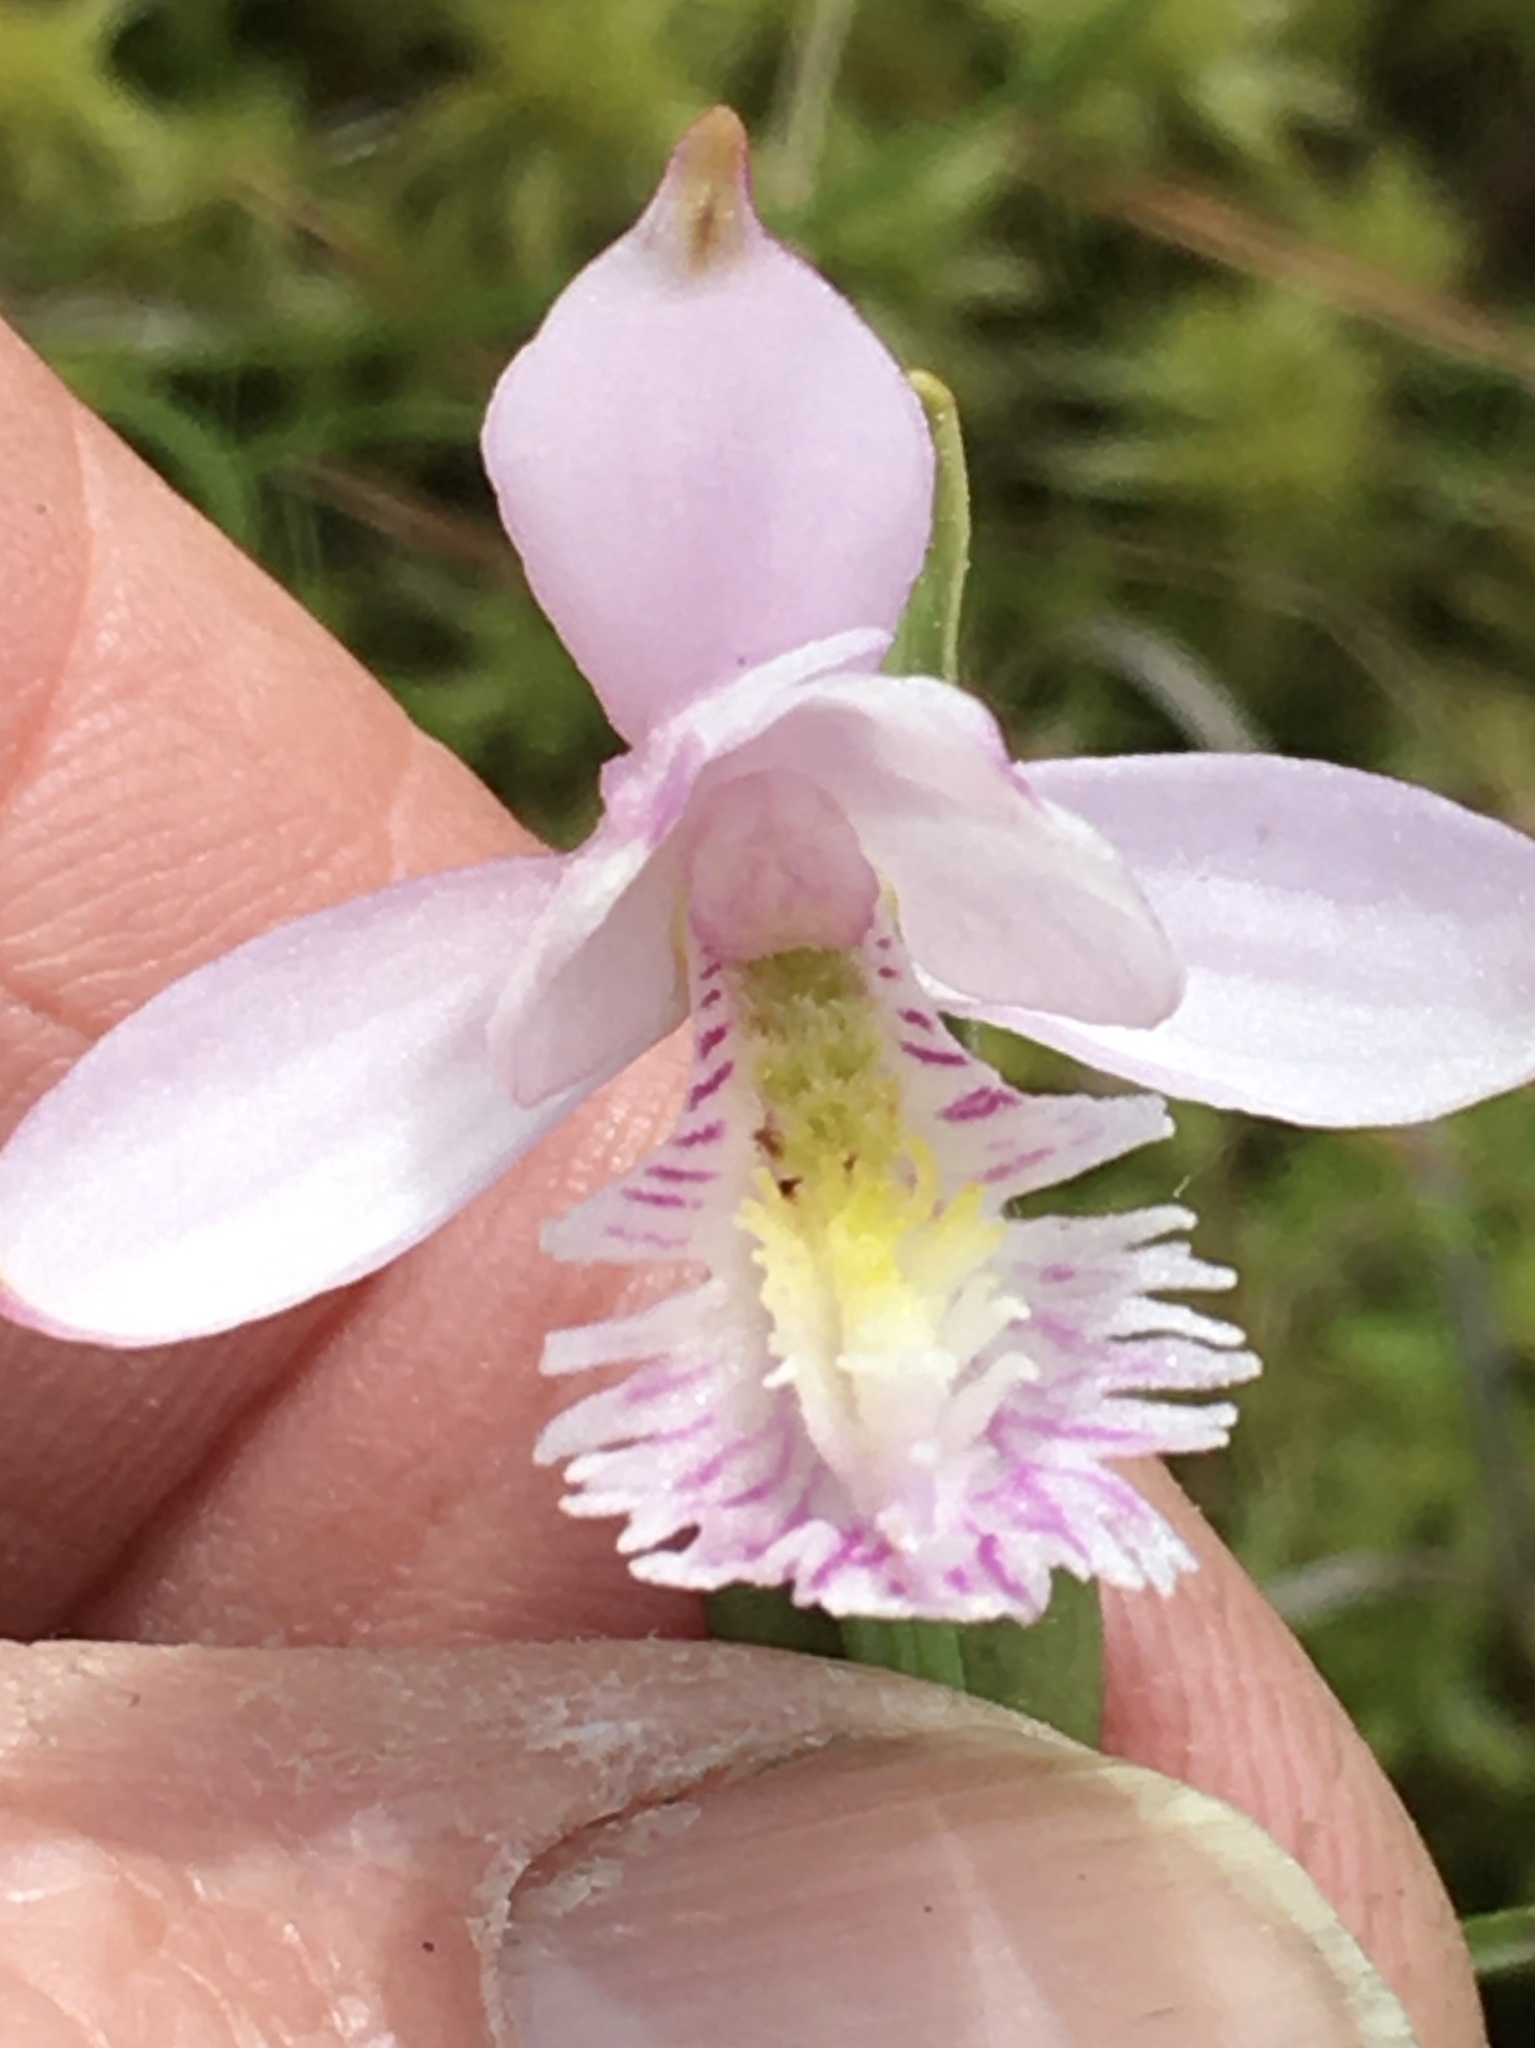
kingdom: Plantae
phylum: Tracheophyta
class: Liliopsida
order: Asparagales
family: Orchidaceae
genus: Pogonia
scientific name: Pogonia ophioglossoides
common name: Rose pogonia
